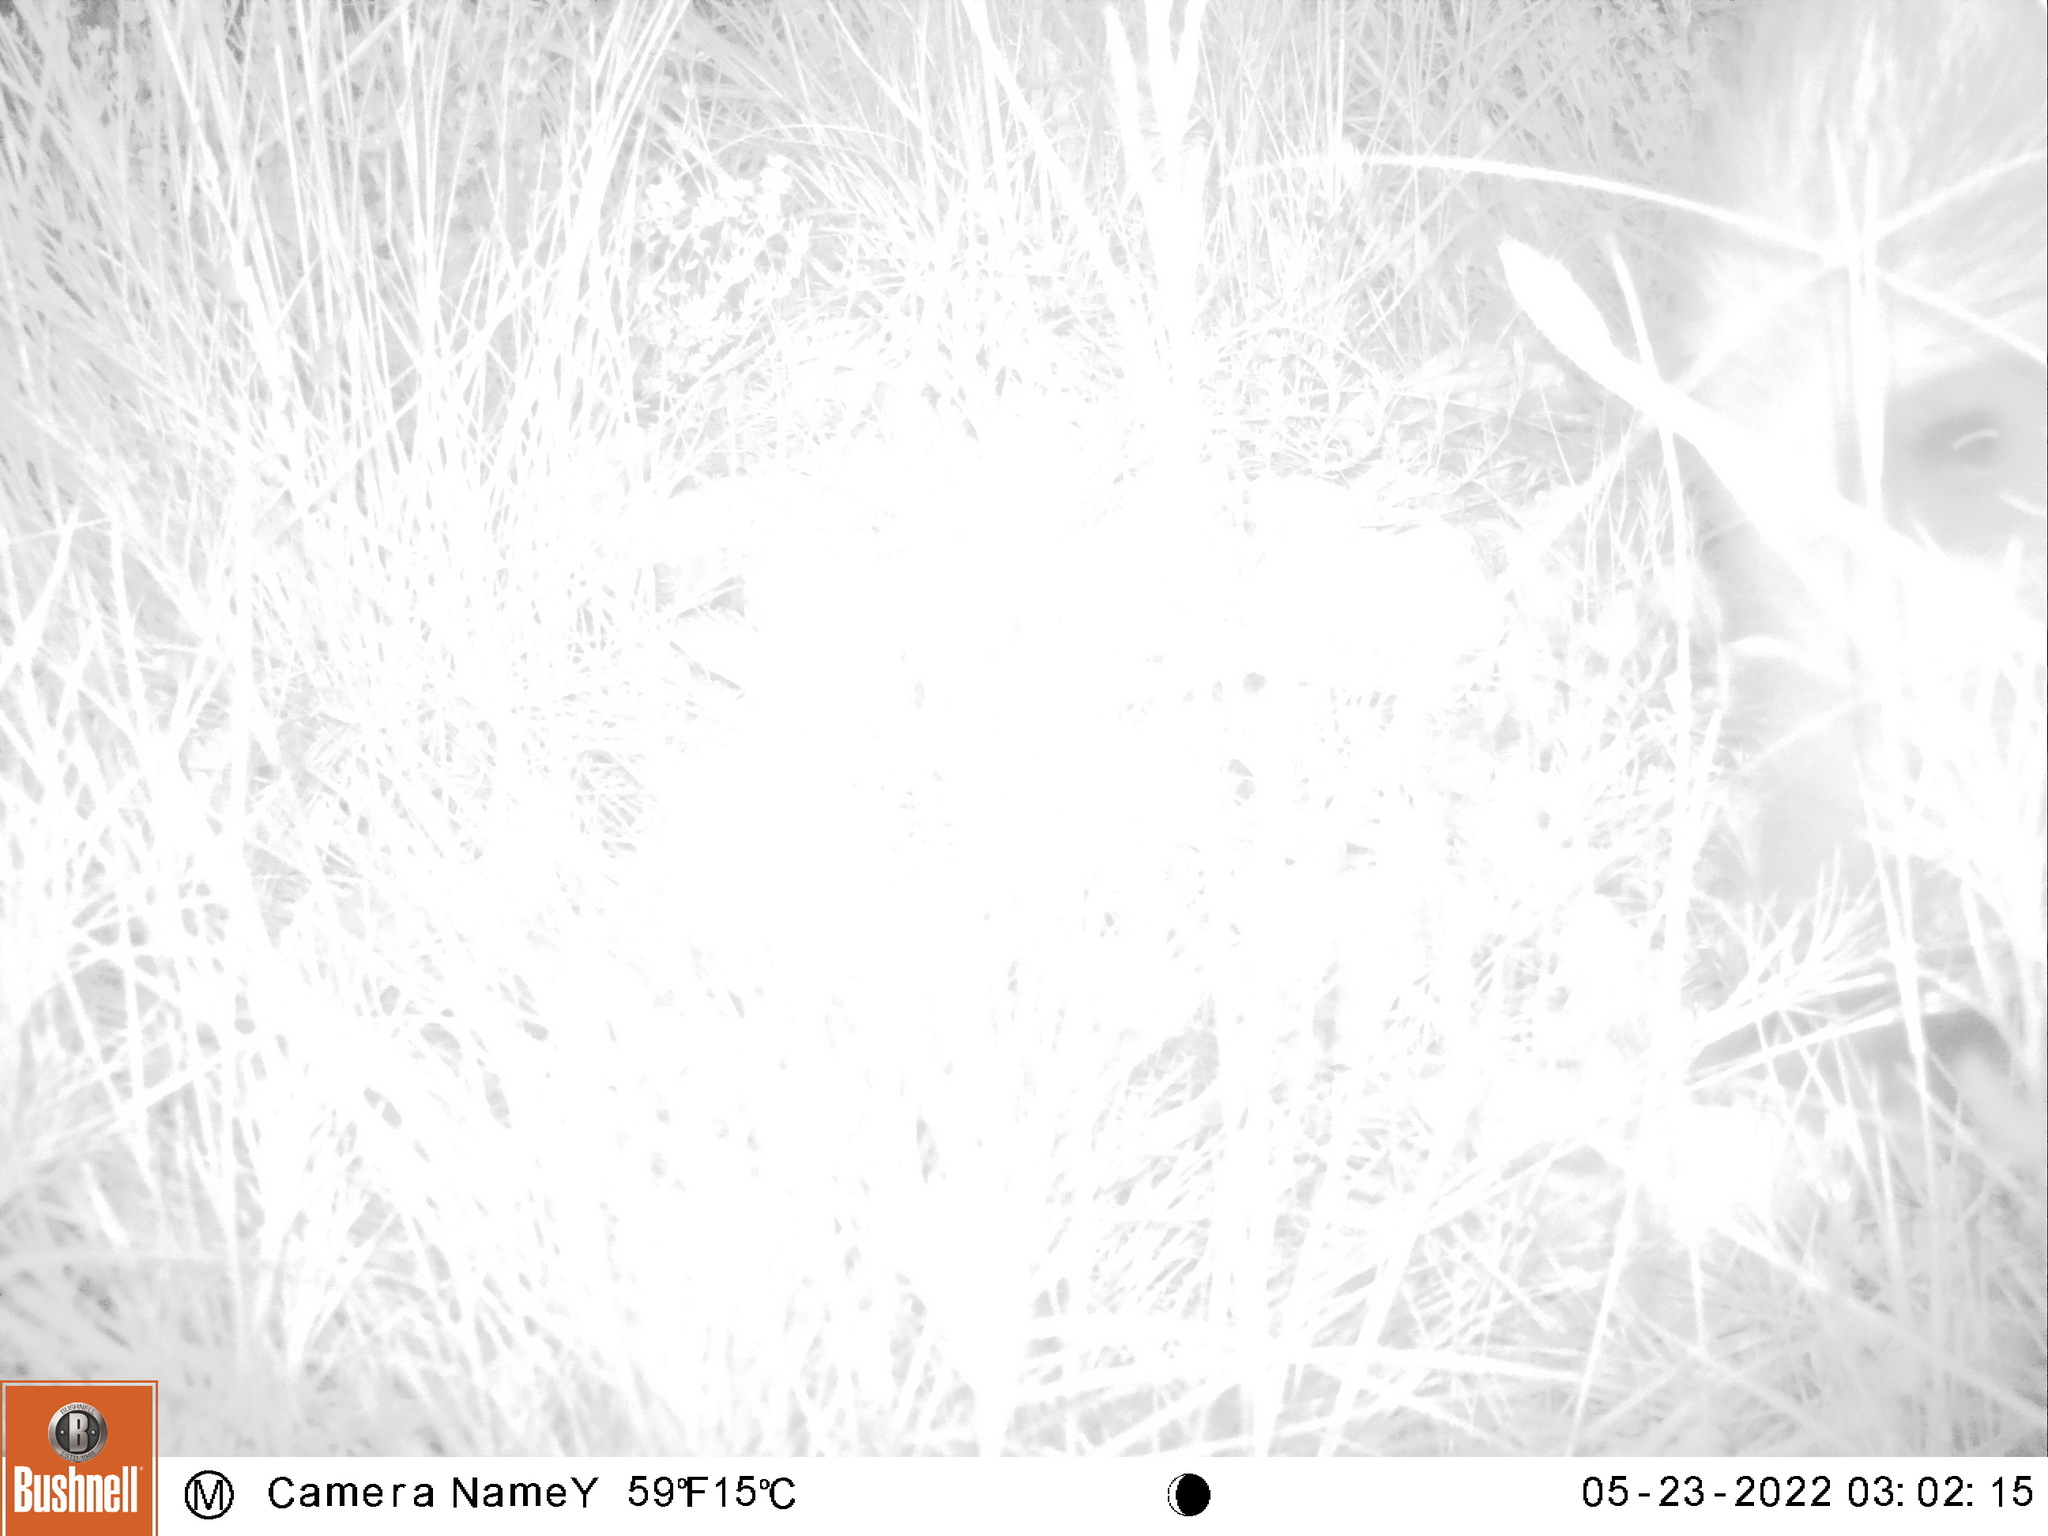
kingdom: Animalia
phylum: Chordata
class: Mammalia
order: Artiodactyla
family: Suidae
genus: Sus
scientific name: Sus scrofa
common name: Wild boar
